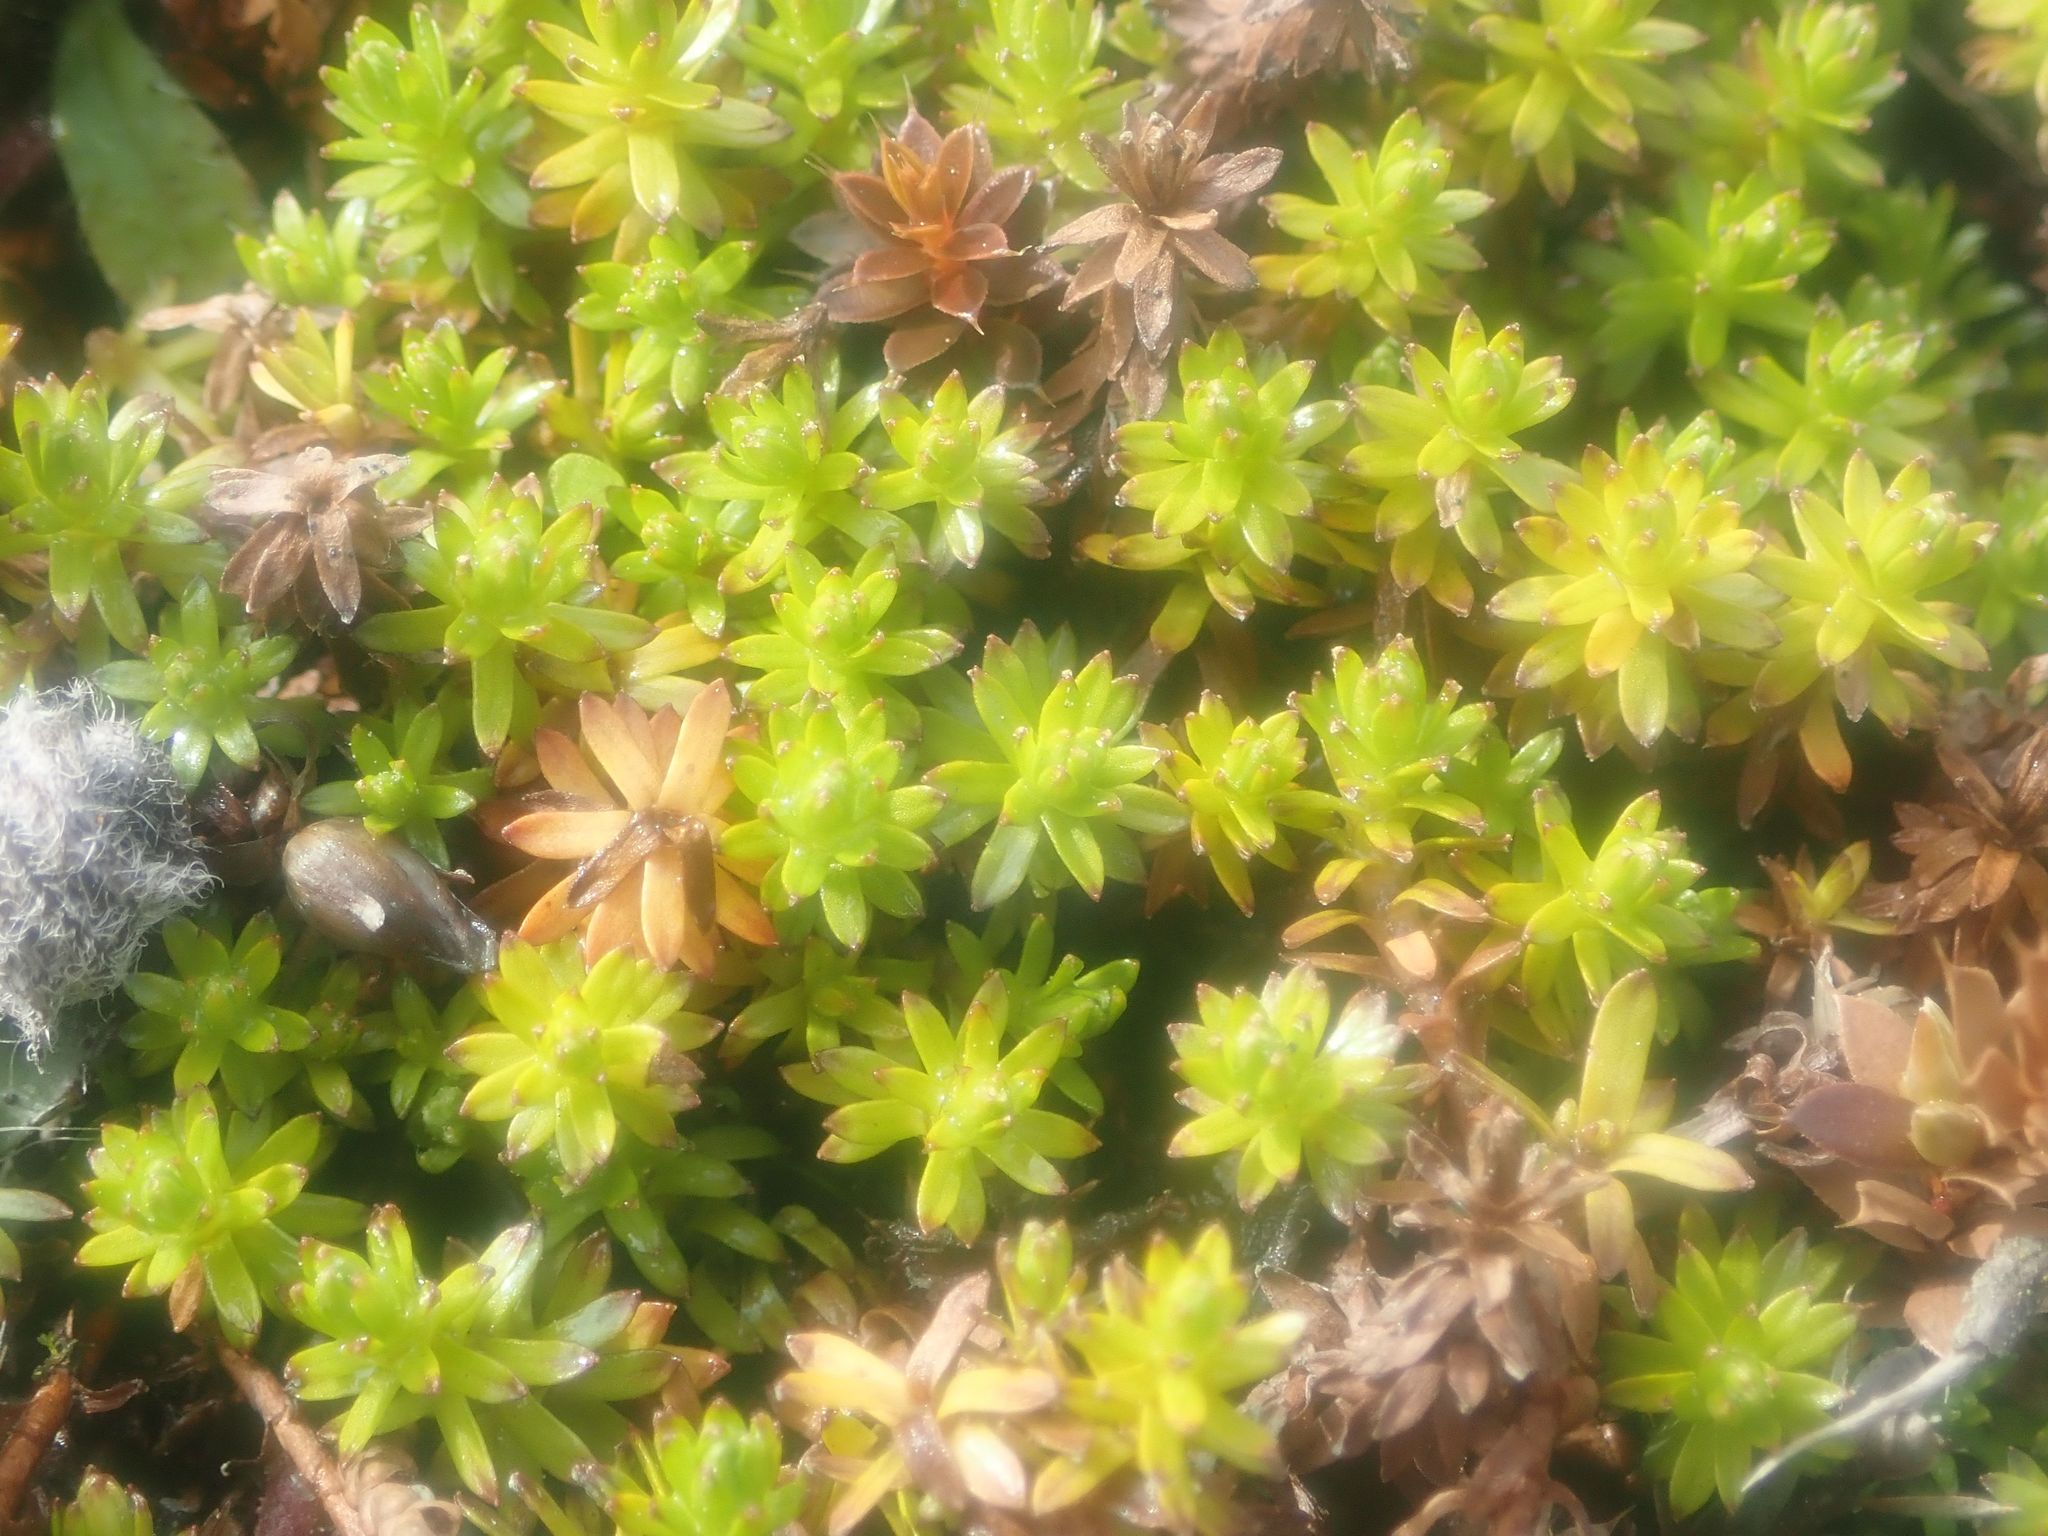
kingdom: Plantae
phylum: Tracheophyta
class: Magnoliopsida
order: Asterales
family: Asteraceae
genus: Raoulia
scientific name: Raoulia glabra
